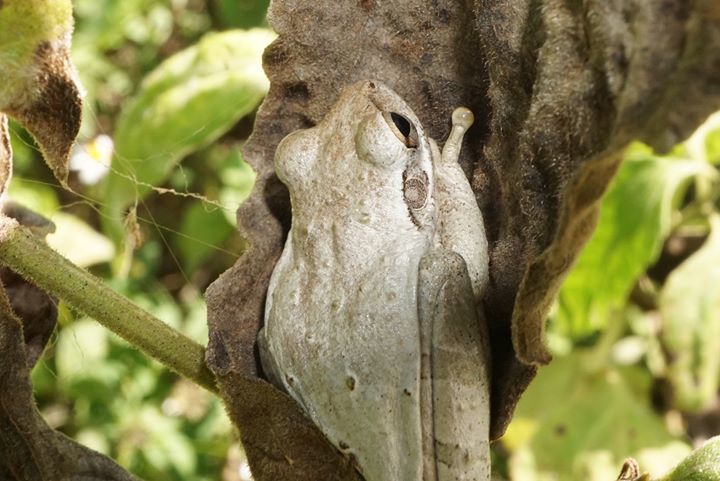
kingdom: Animalia
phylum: Chordata
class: Amphibia
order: Anura
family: Hylidae
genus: Osteopilus
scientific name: Osteopilus septentrionalis
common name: Cuban treefrog
